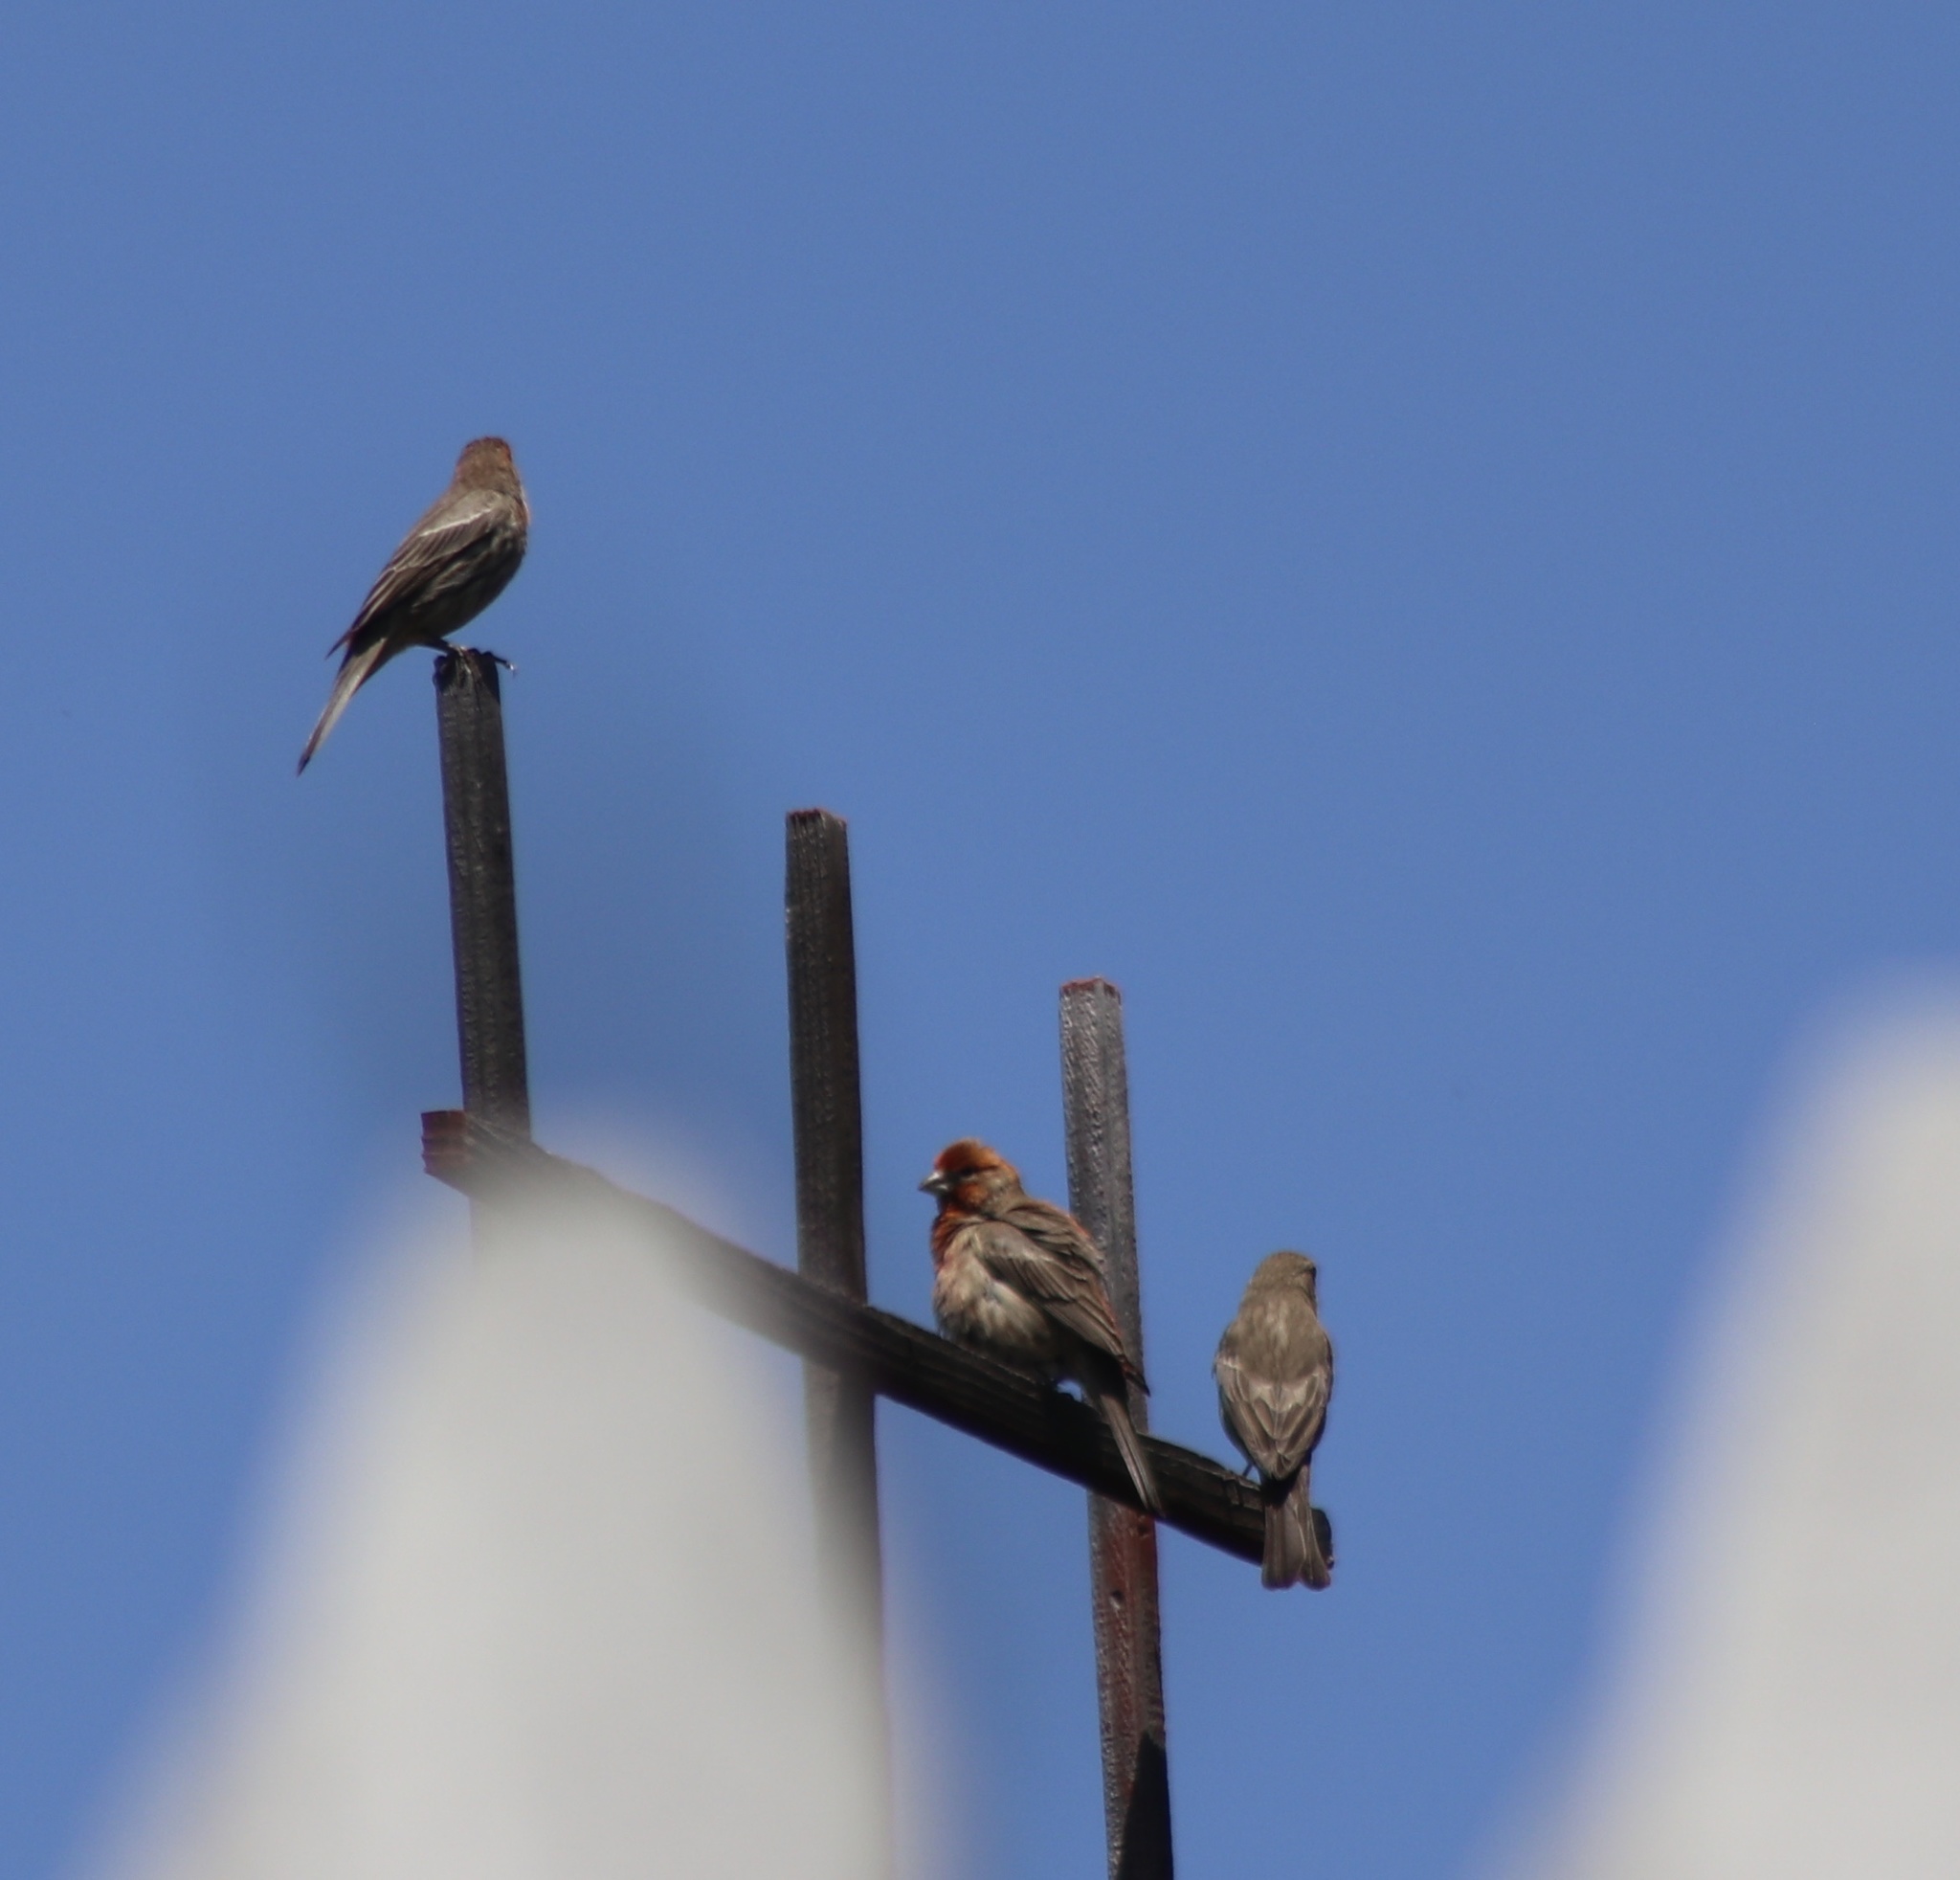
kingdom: Animalia
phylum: Chordata
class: Aves
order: Passeriformes
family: Fringillidae
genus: Haemorhous
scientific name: Haemorhous mexicanus
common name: House finch
